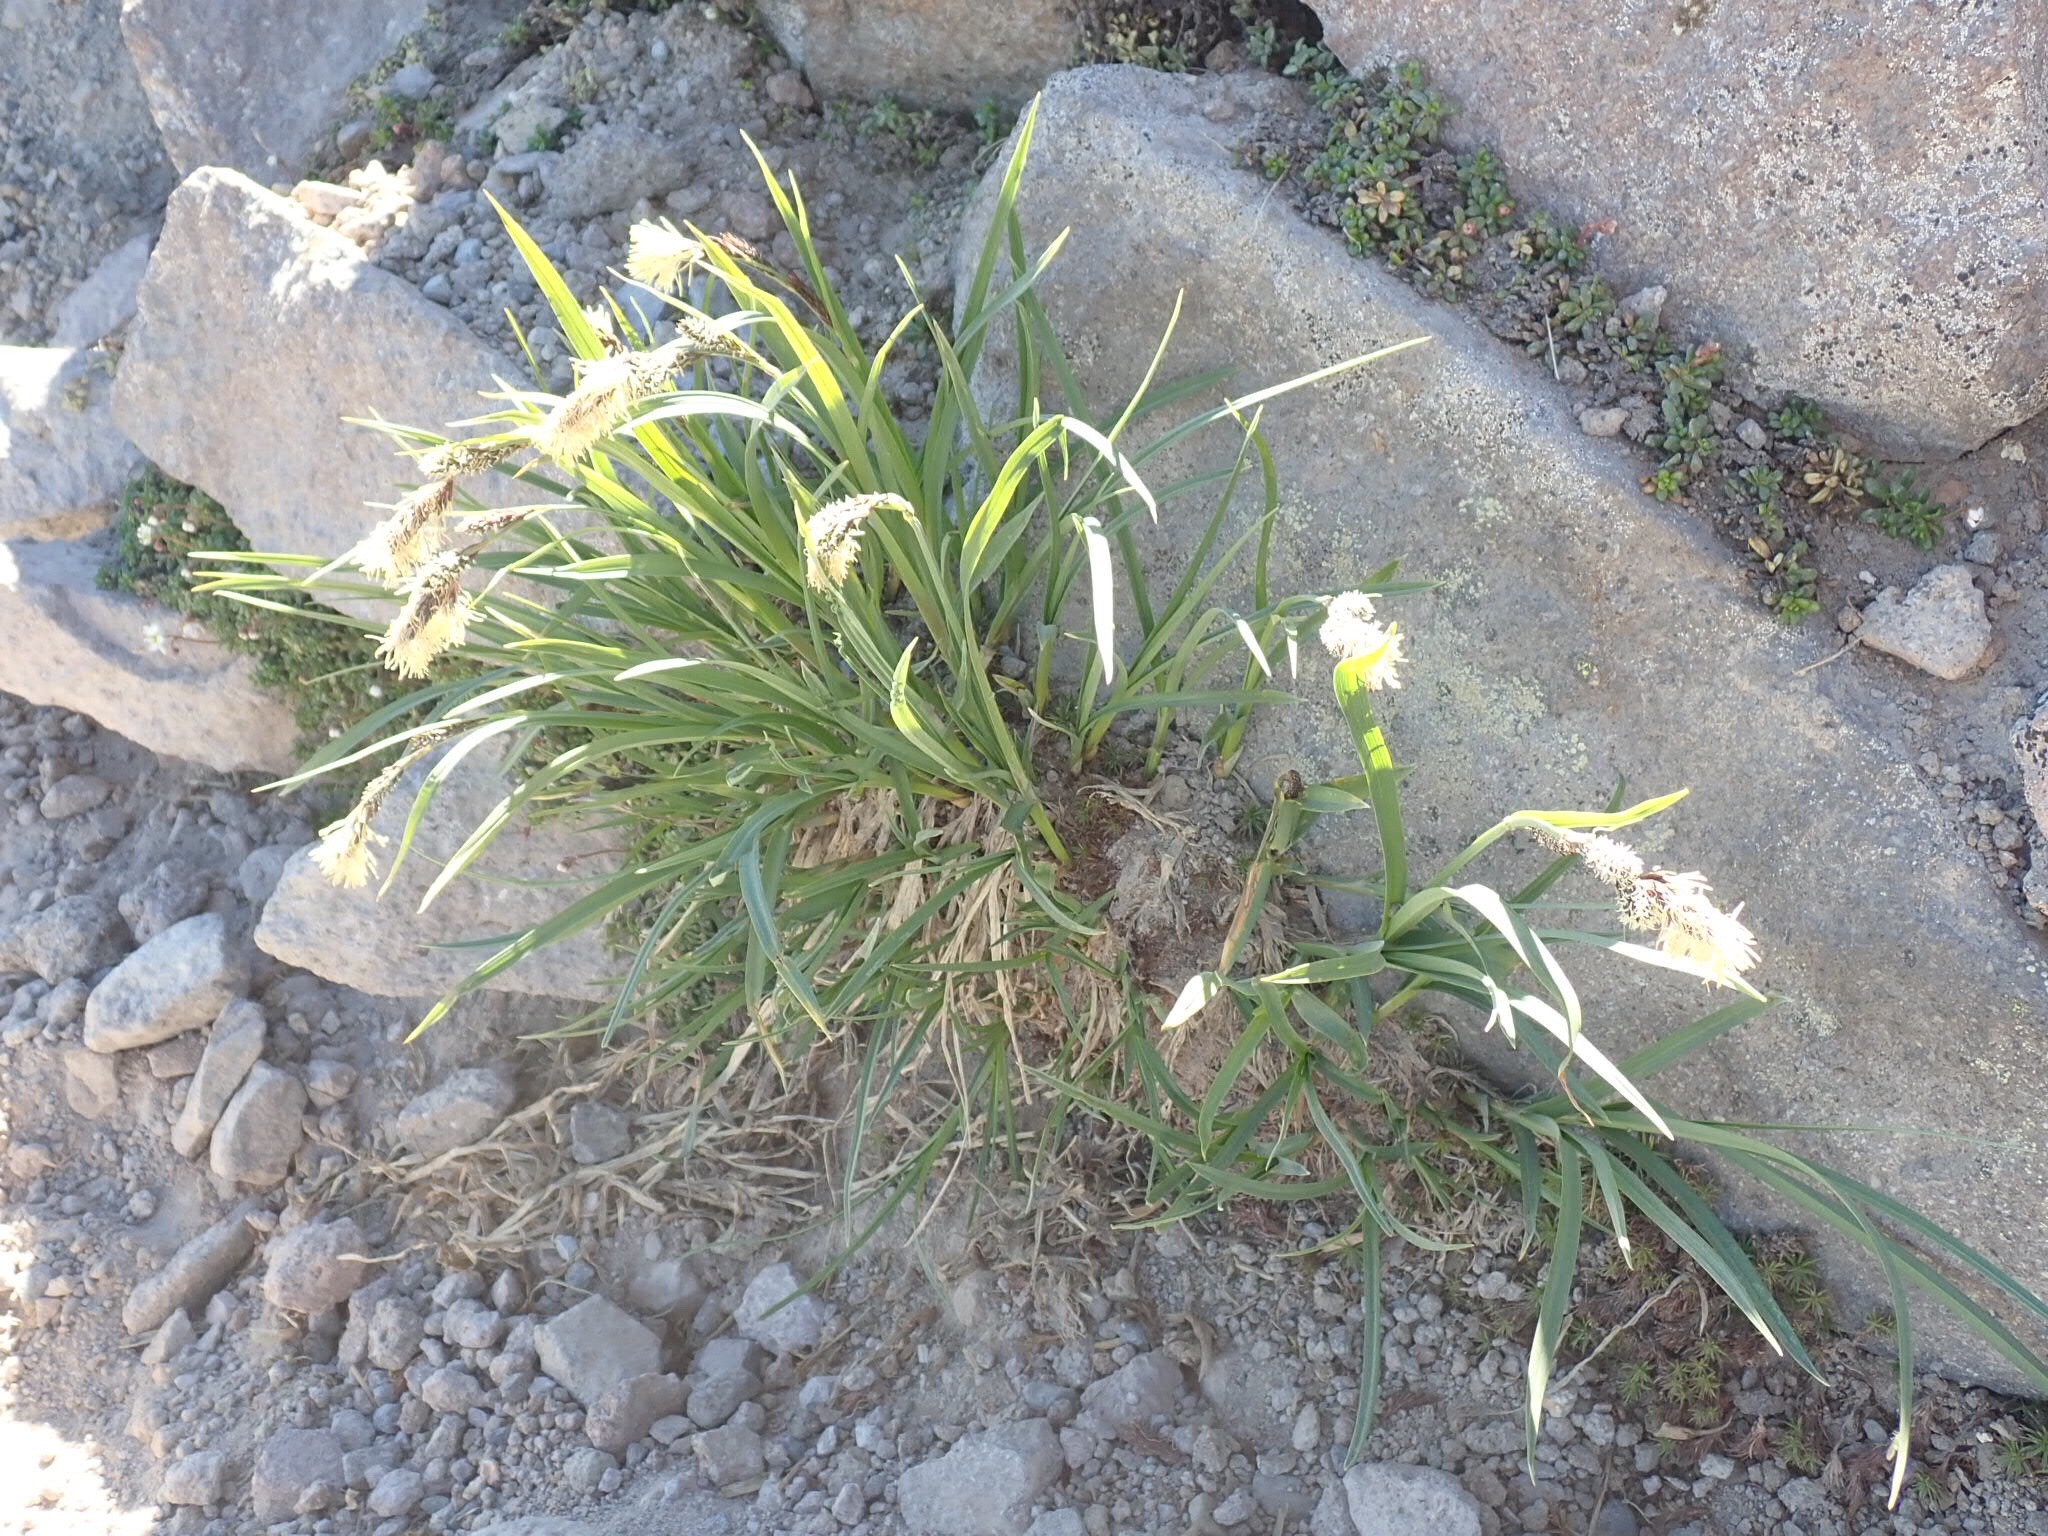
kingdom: Plantae
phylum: Tracheophyta
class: Liliopsida
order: Poales
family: Cyperaceae
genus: Carex
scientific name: Carex spectabilis
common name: Northwestern showy sedge
